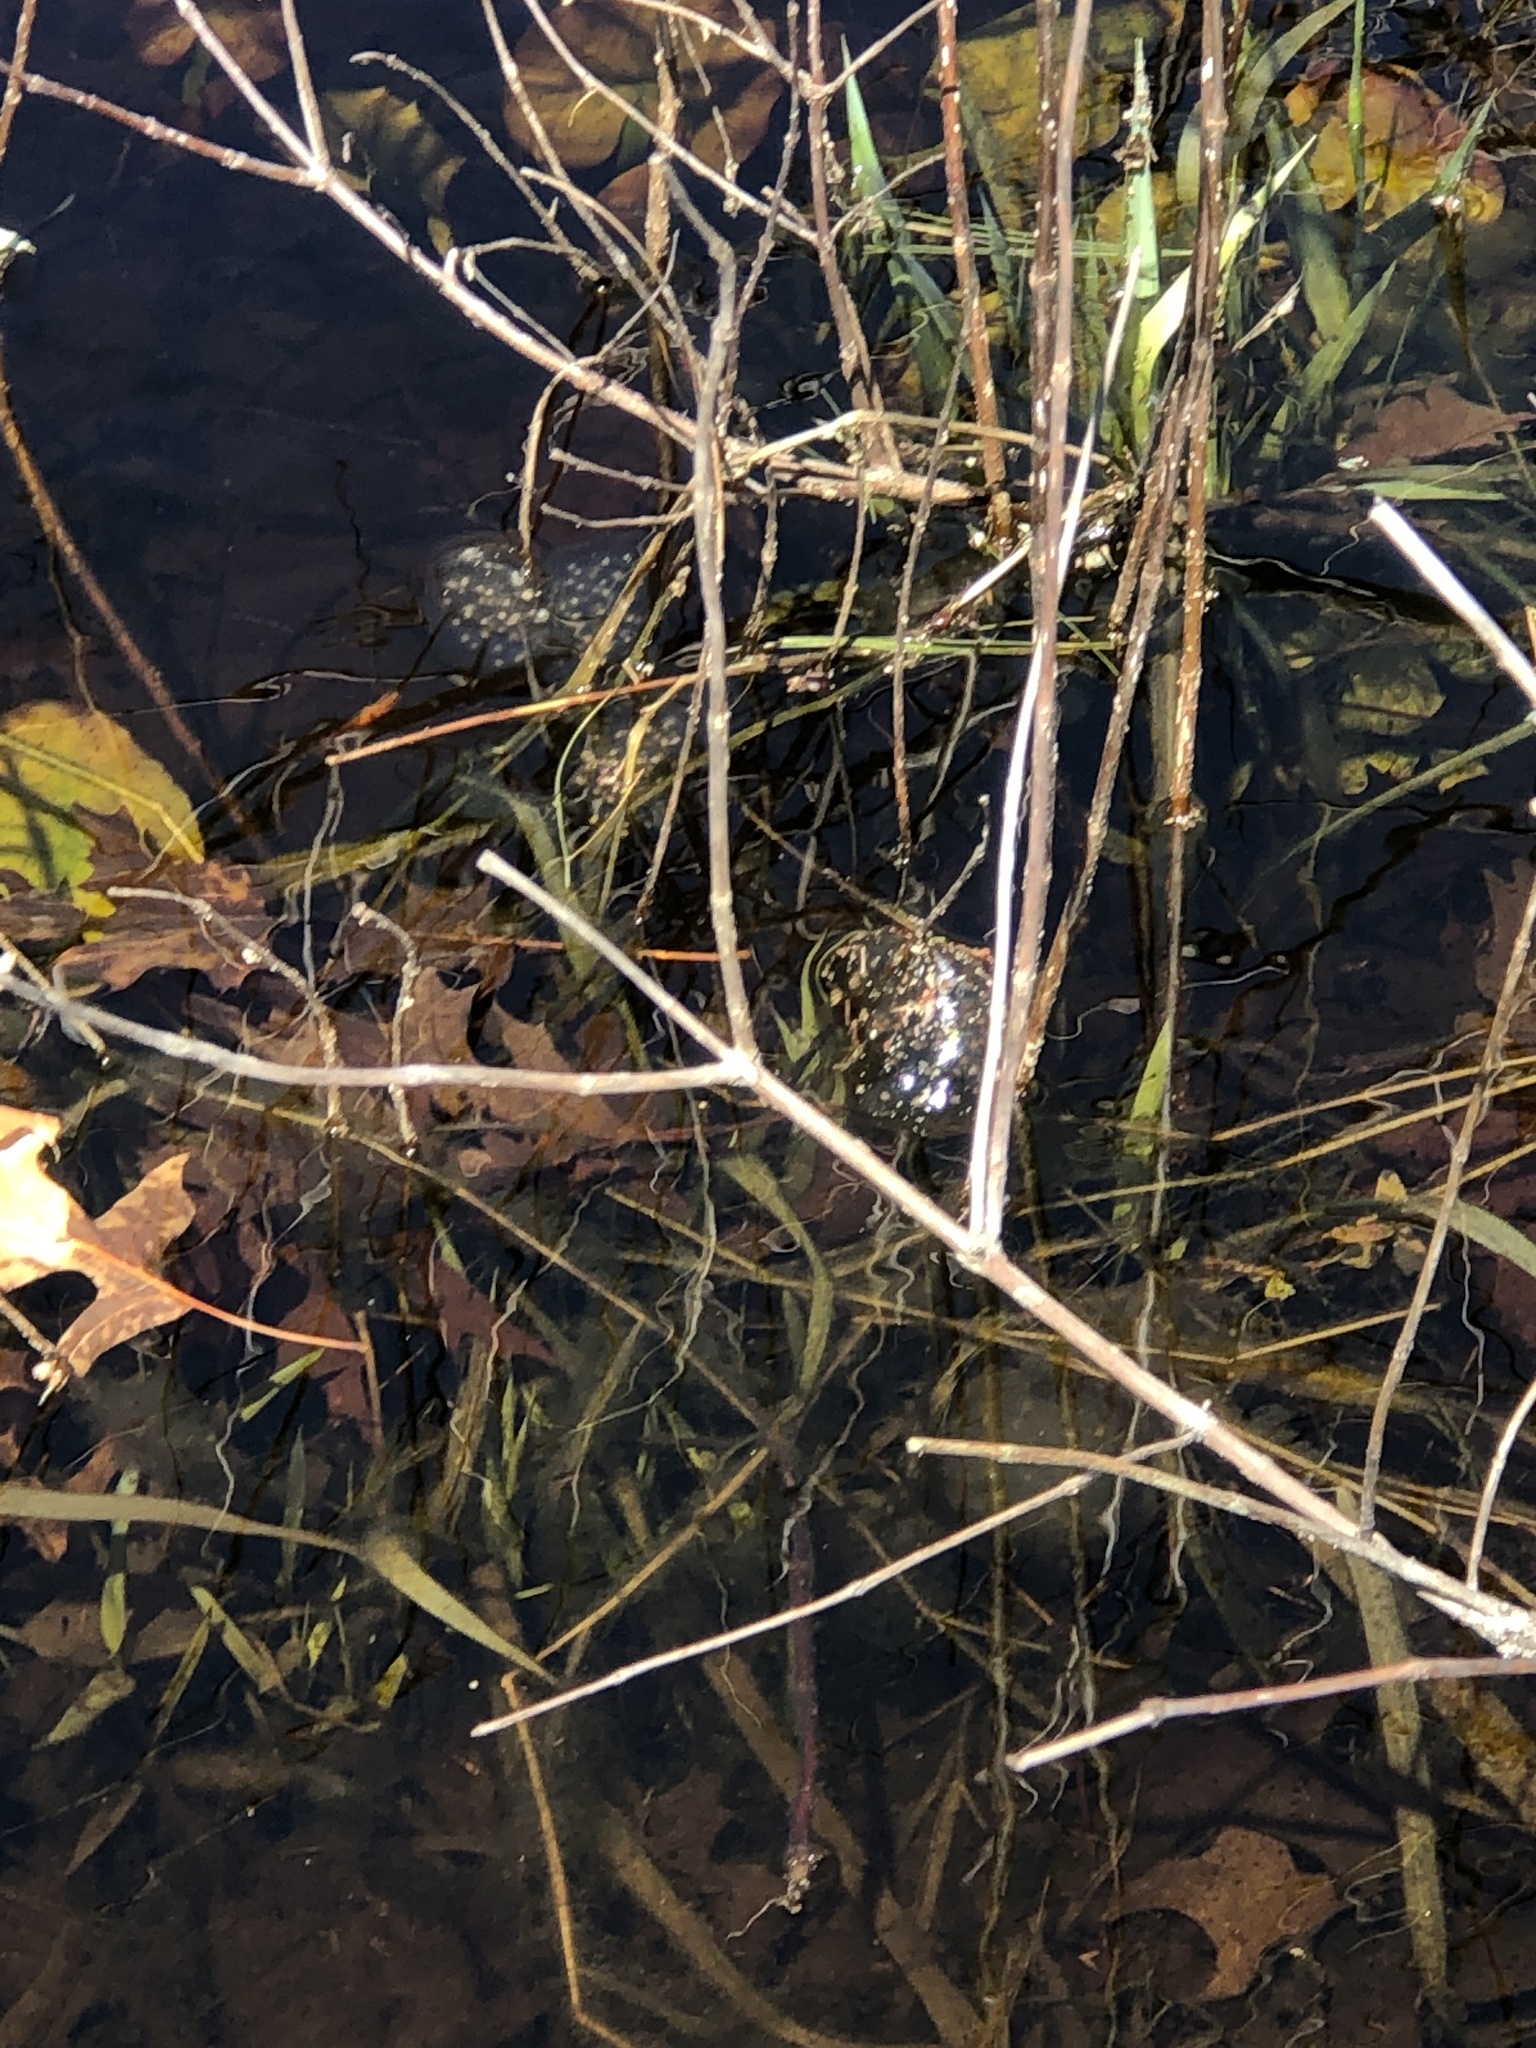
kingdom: Animalia
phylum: Chordata
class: Amphibia
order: Caudata
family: Ambystomatidae
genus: Ambystoma
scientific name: Ambystoma maculatum
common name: Spotted salamander
